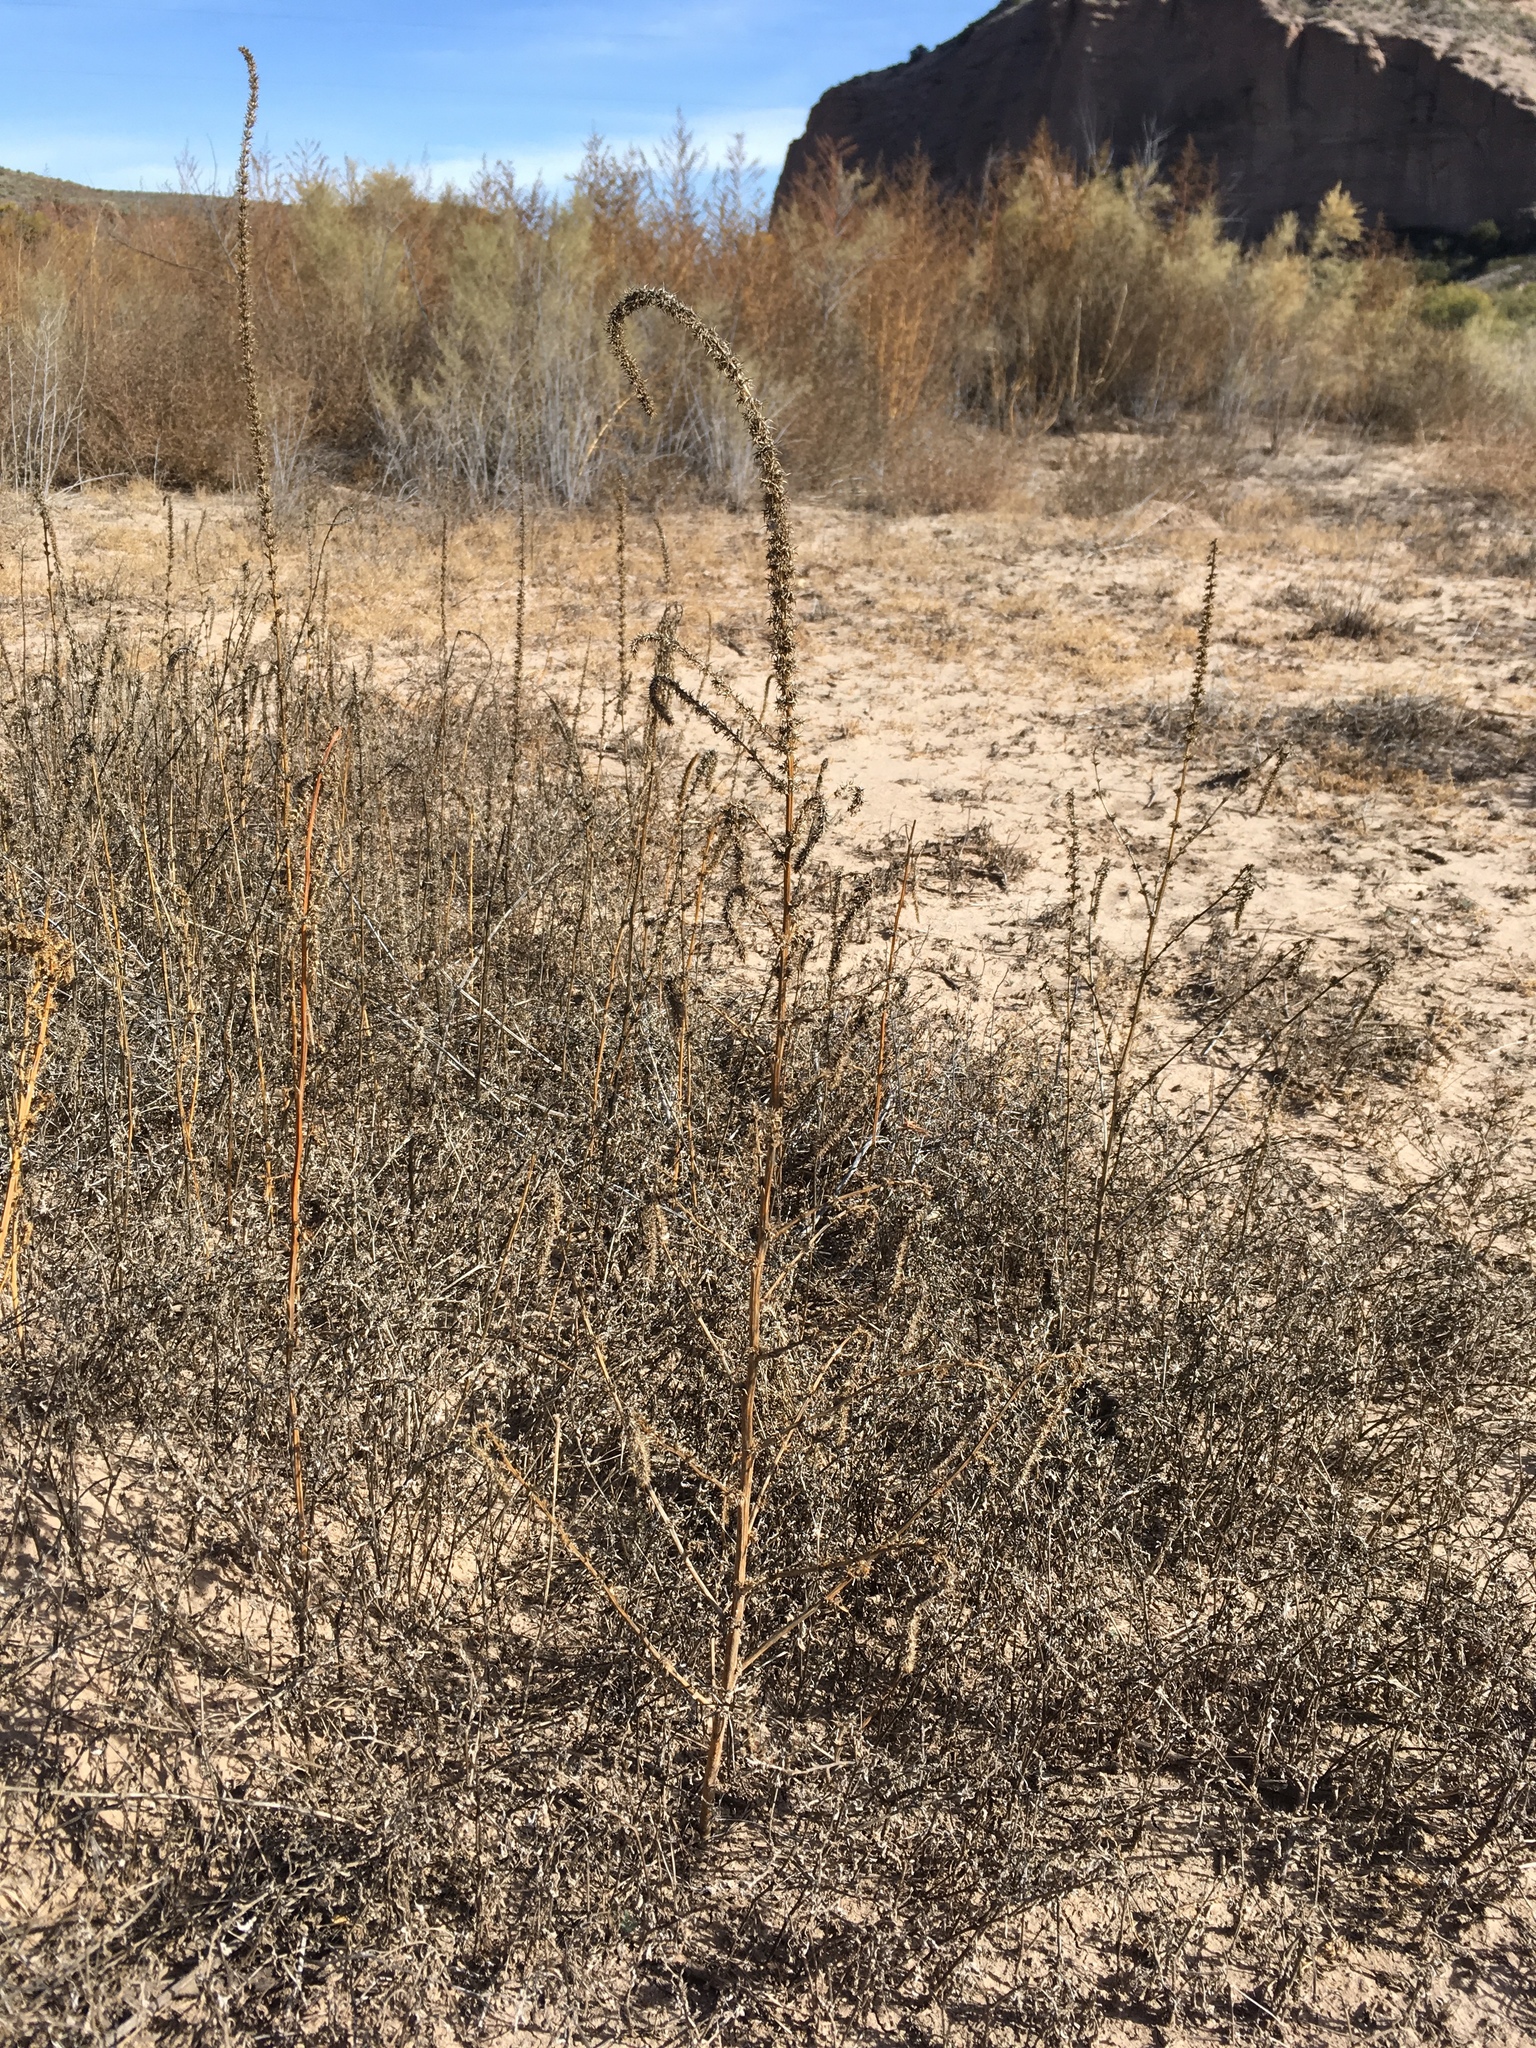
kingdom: Plantae
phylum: Tracheophyta
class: Magnoliopsida
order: Caryophyllales
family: Amaranthaceae
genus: Amaranthus
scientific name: Amaranthus palmeri
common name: Dioecious amaranth
